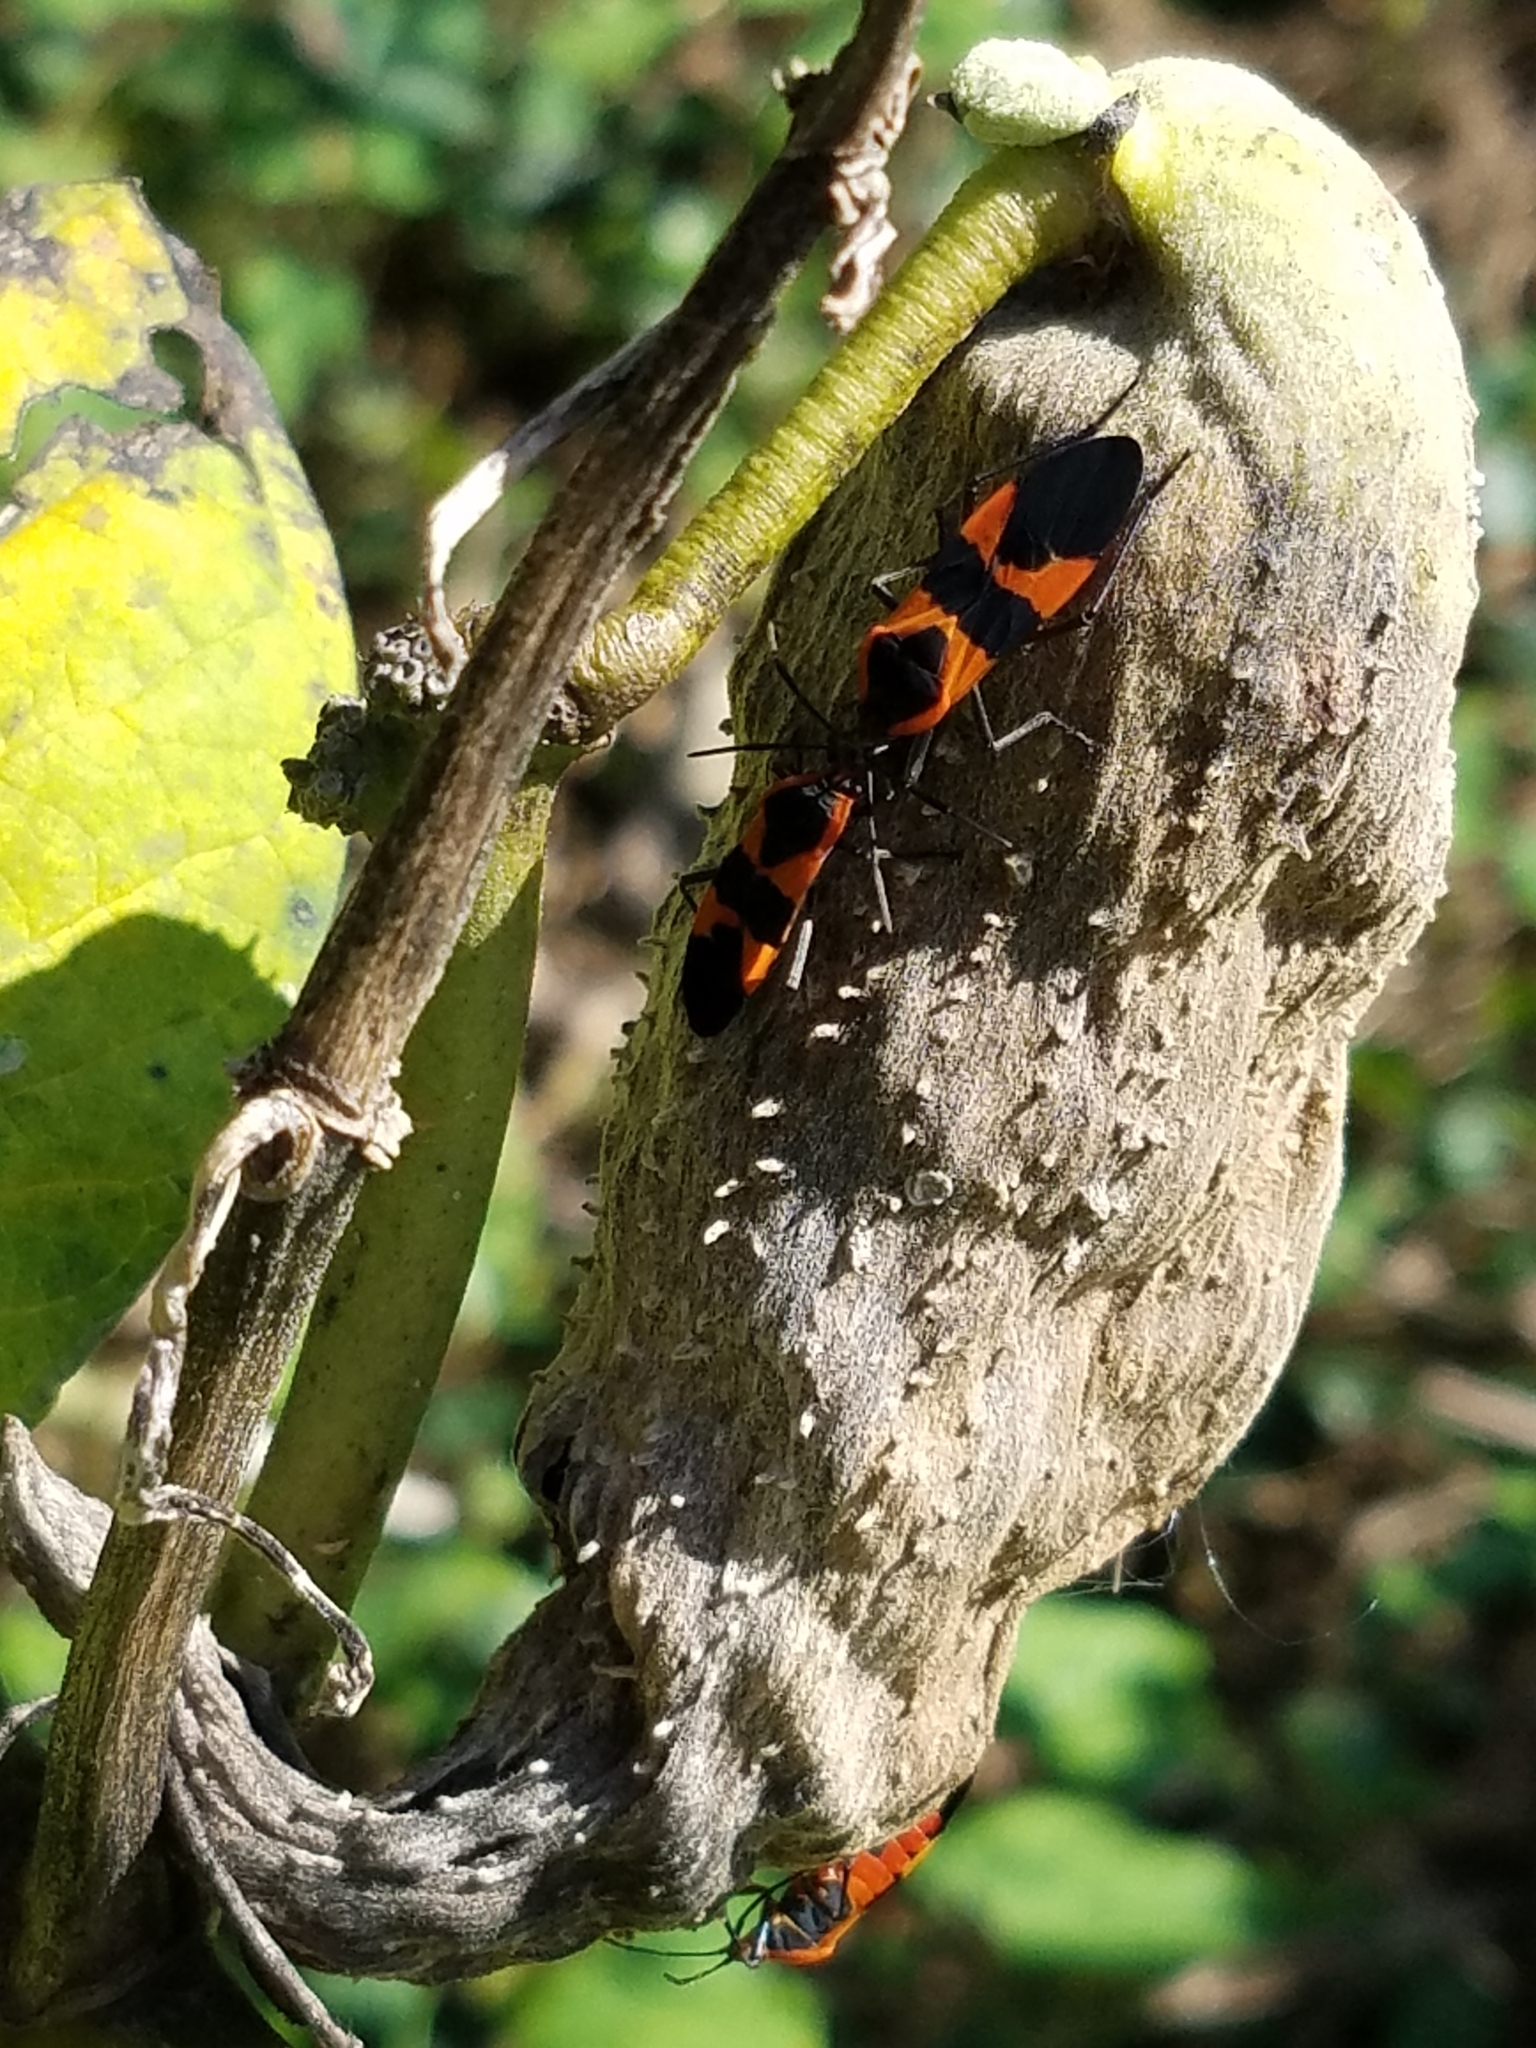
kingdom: Animalia
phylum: Arthropoda
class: Insecta
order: Hemiptera
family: Lygaeidae
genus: Oncopeltus
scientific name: Oncopeltus fasciatus
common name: Large milkweed bug
